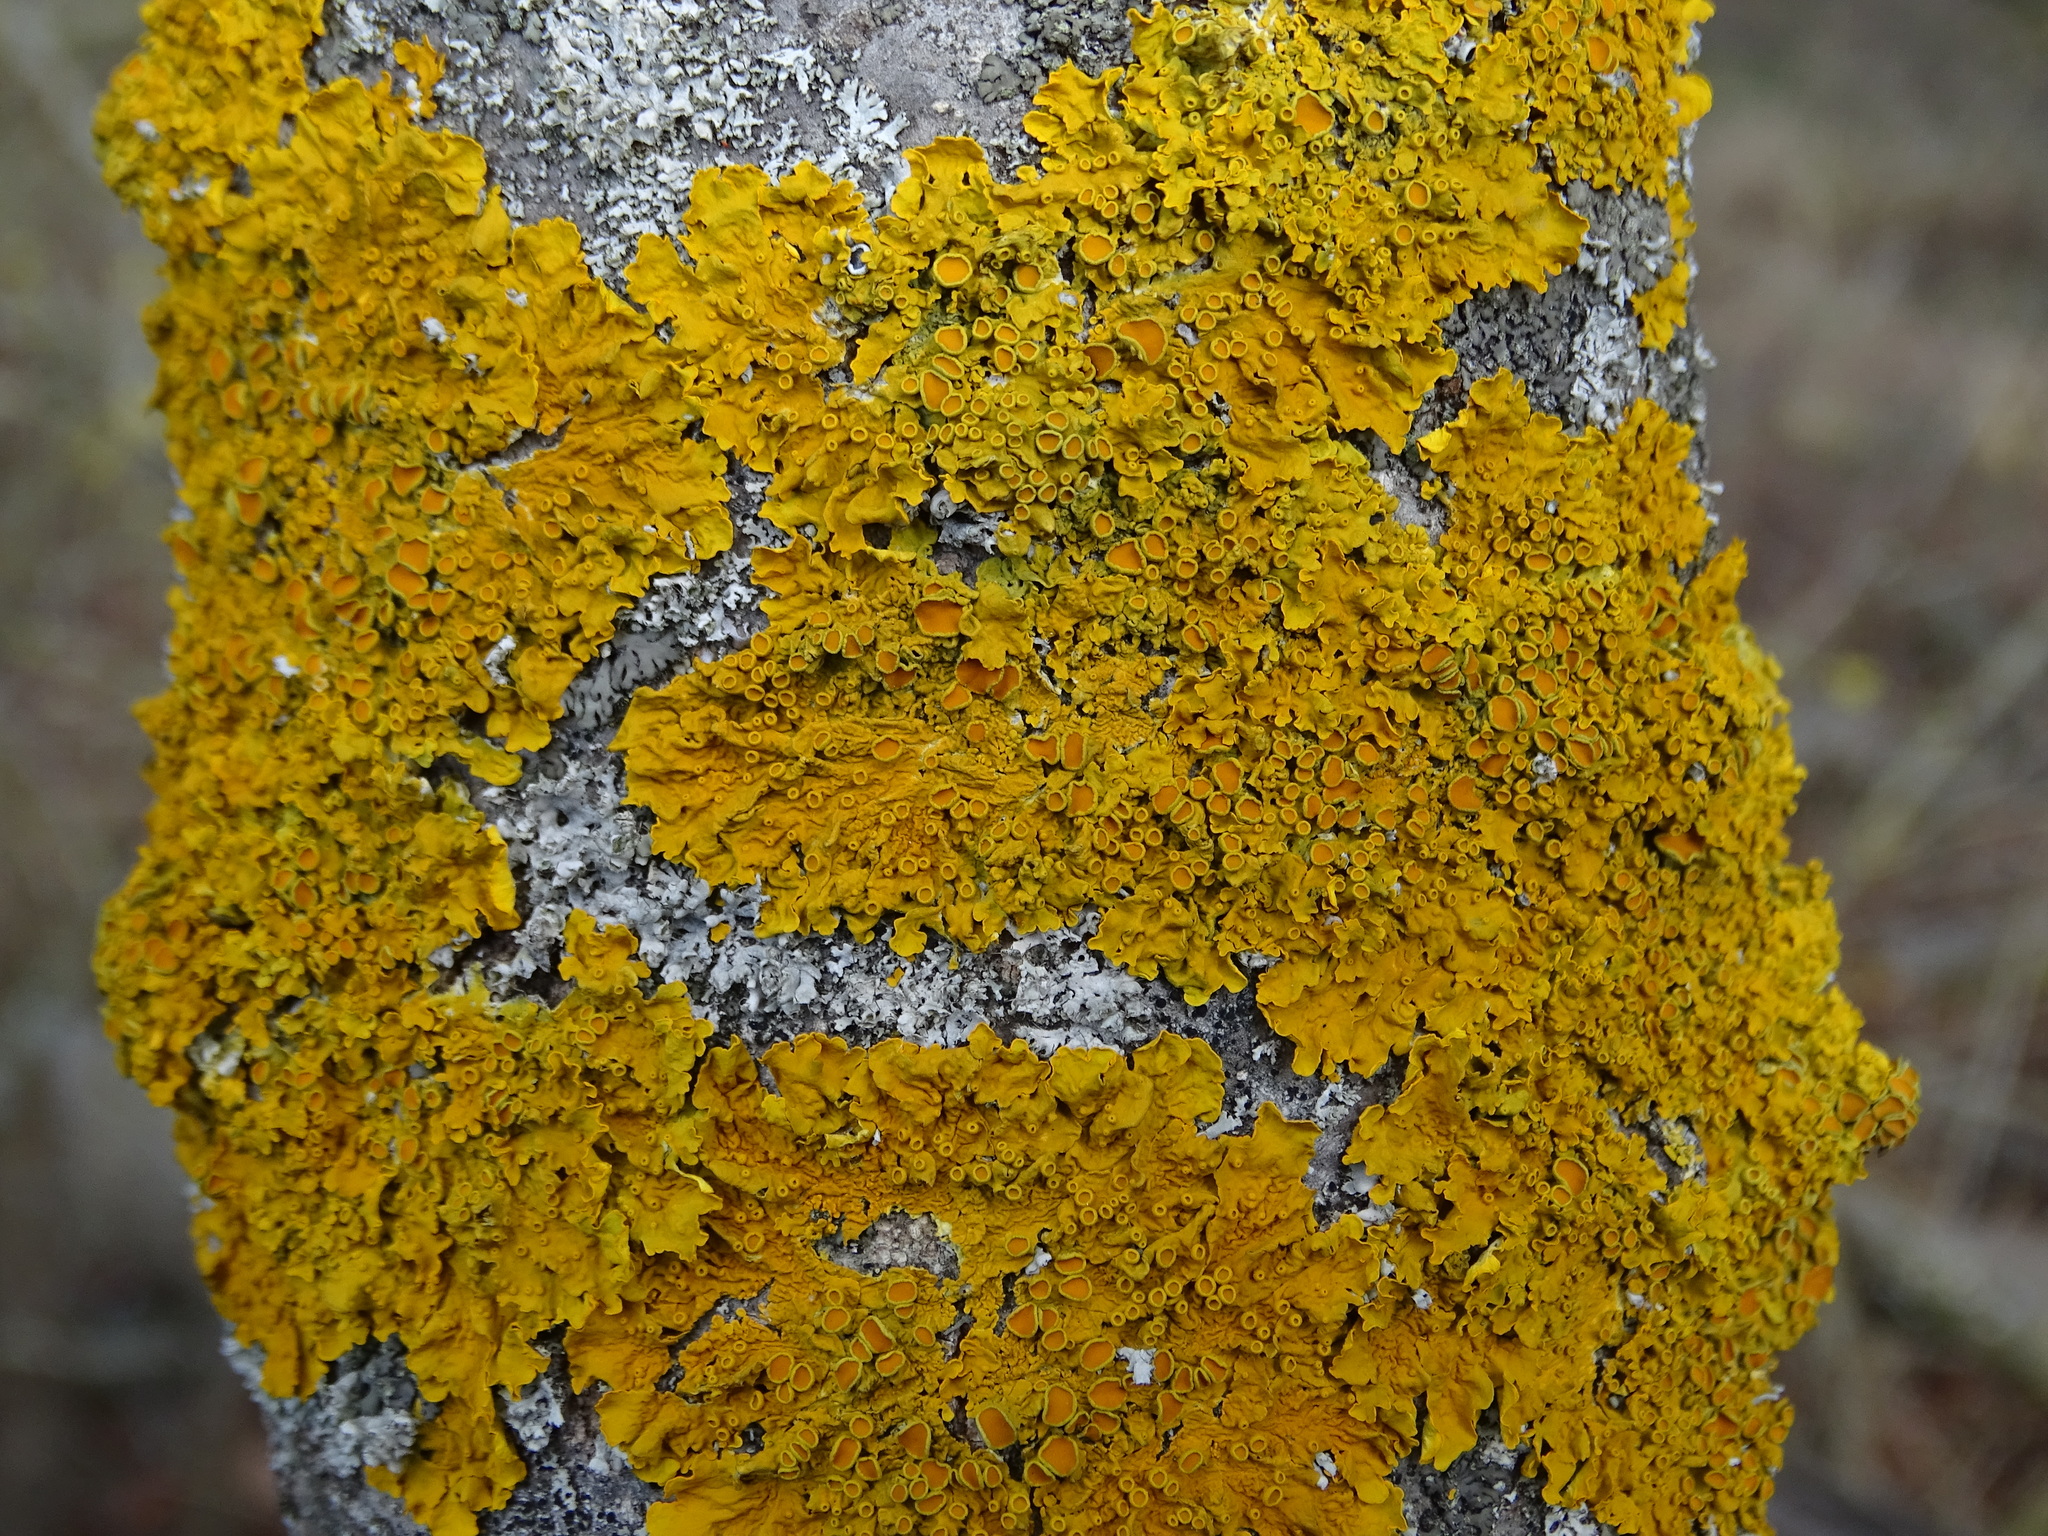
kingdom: Fungi
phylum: Ascomycota
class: Lecanoromycetes
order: Teloschistales
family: Teloschistaceae
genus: Xanthoria
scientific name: Xanthoria parietina
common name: Common orange lichen
